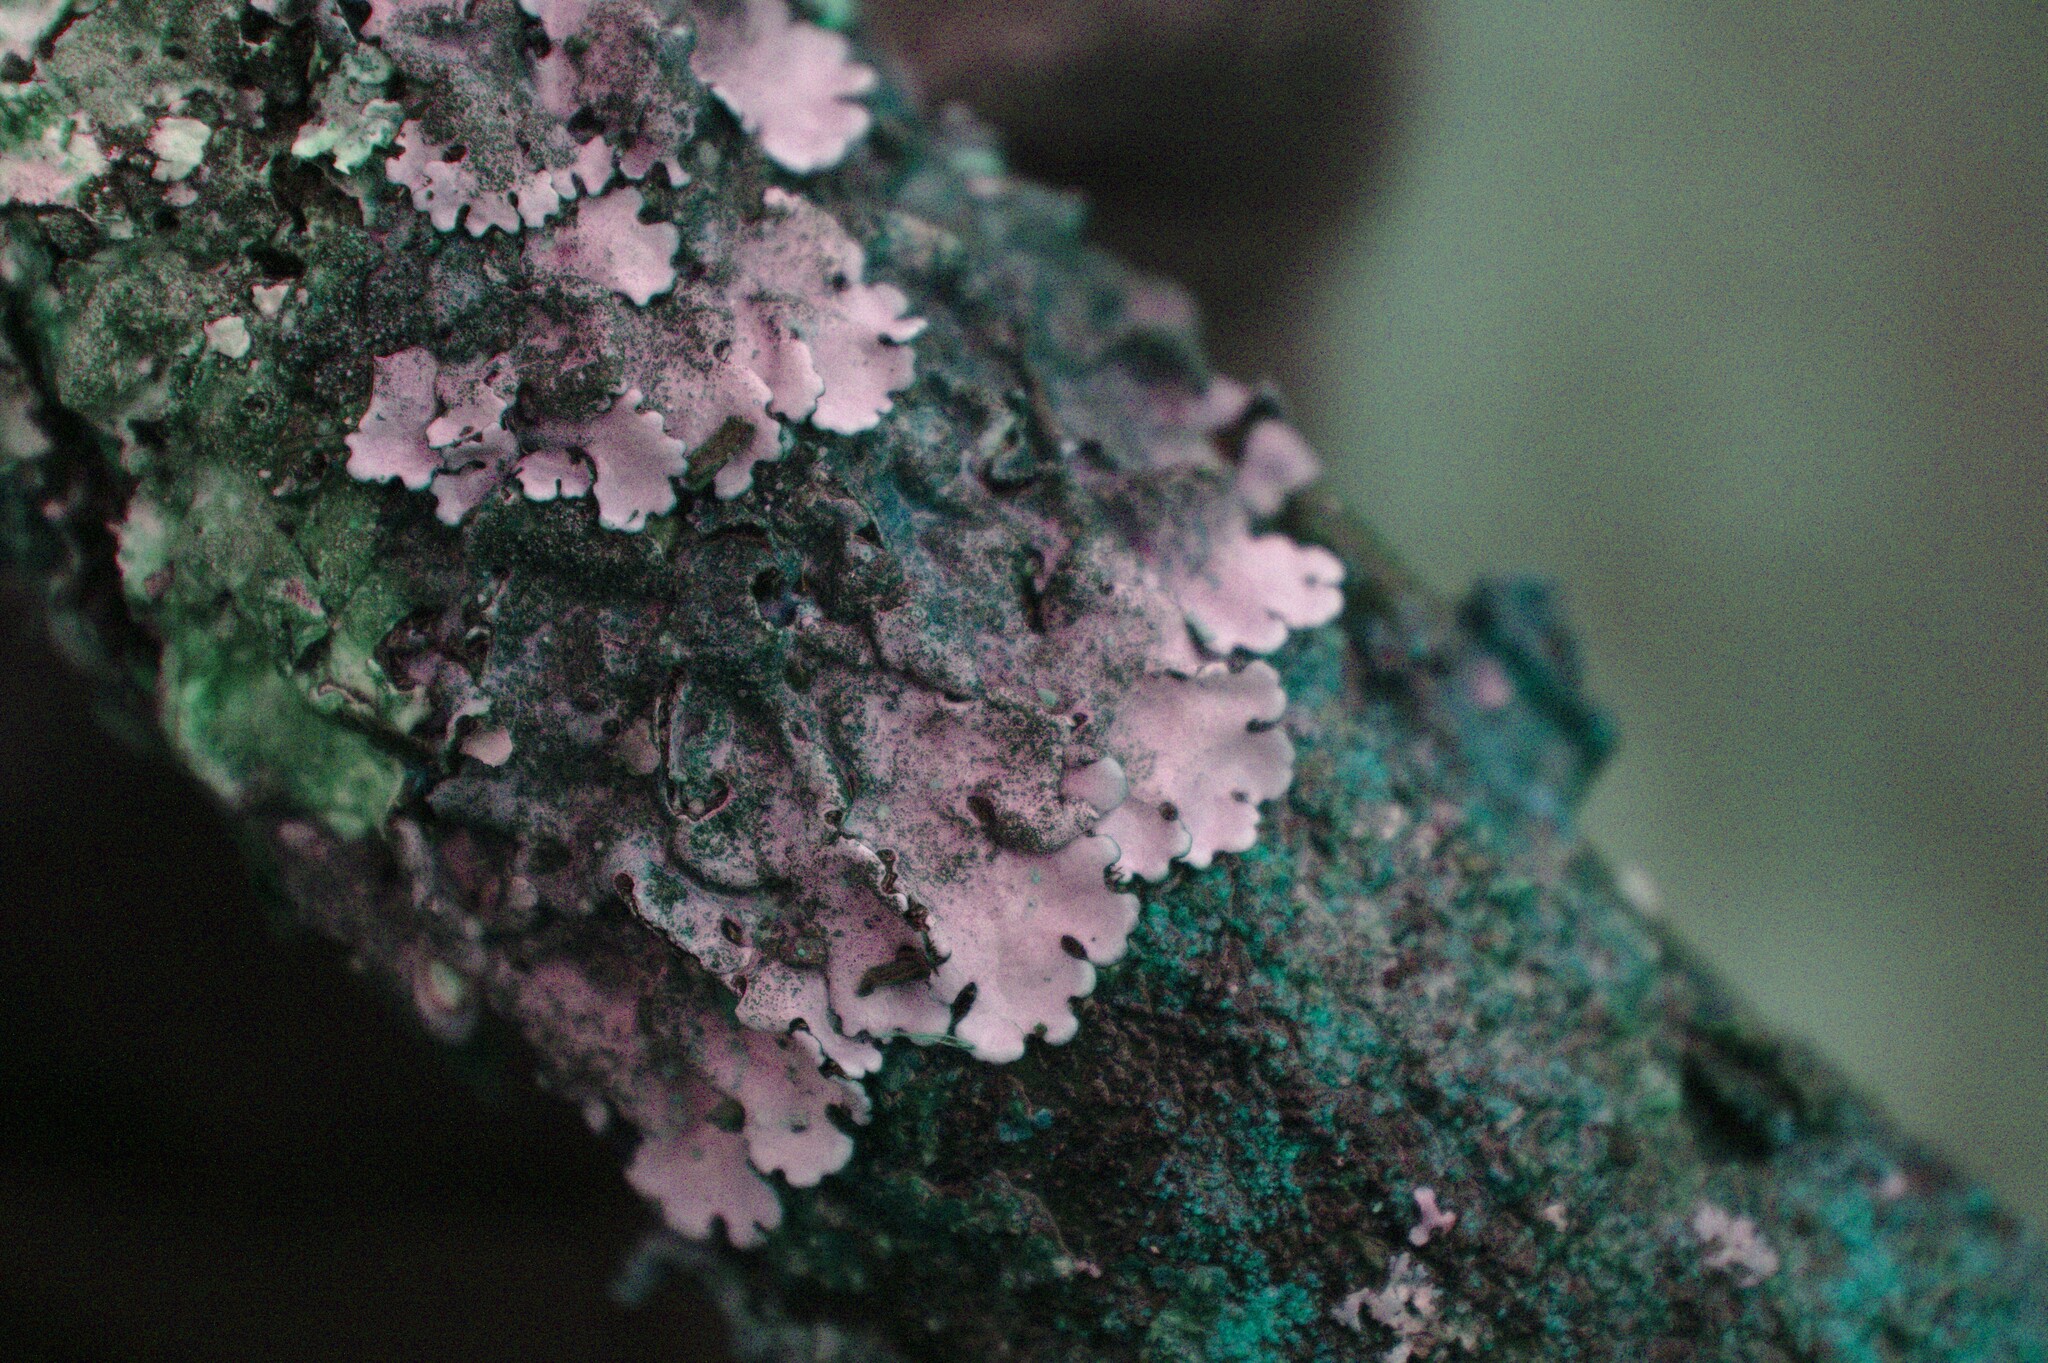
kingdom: Fungi
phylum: Ascomycota
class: Lecanoromycetes
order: Lecanorales
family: Parmeliaceae
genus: Parmelina
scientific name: Parmelina tiliacea
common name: Linden shield lichen
